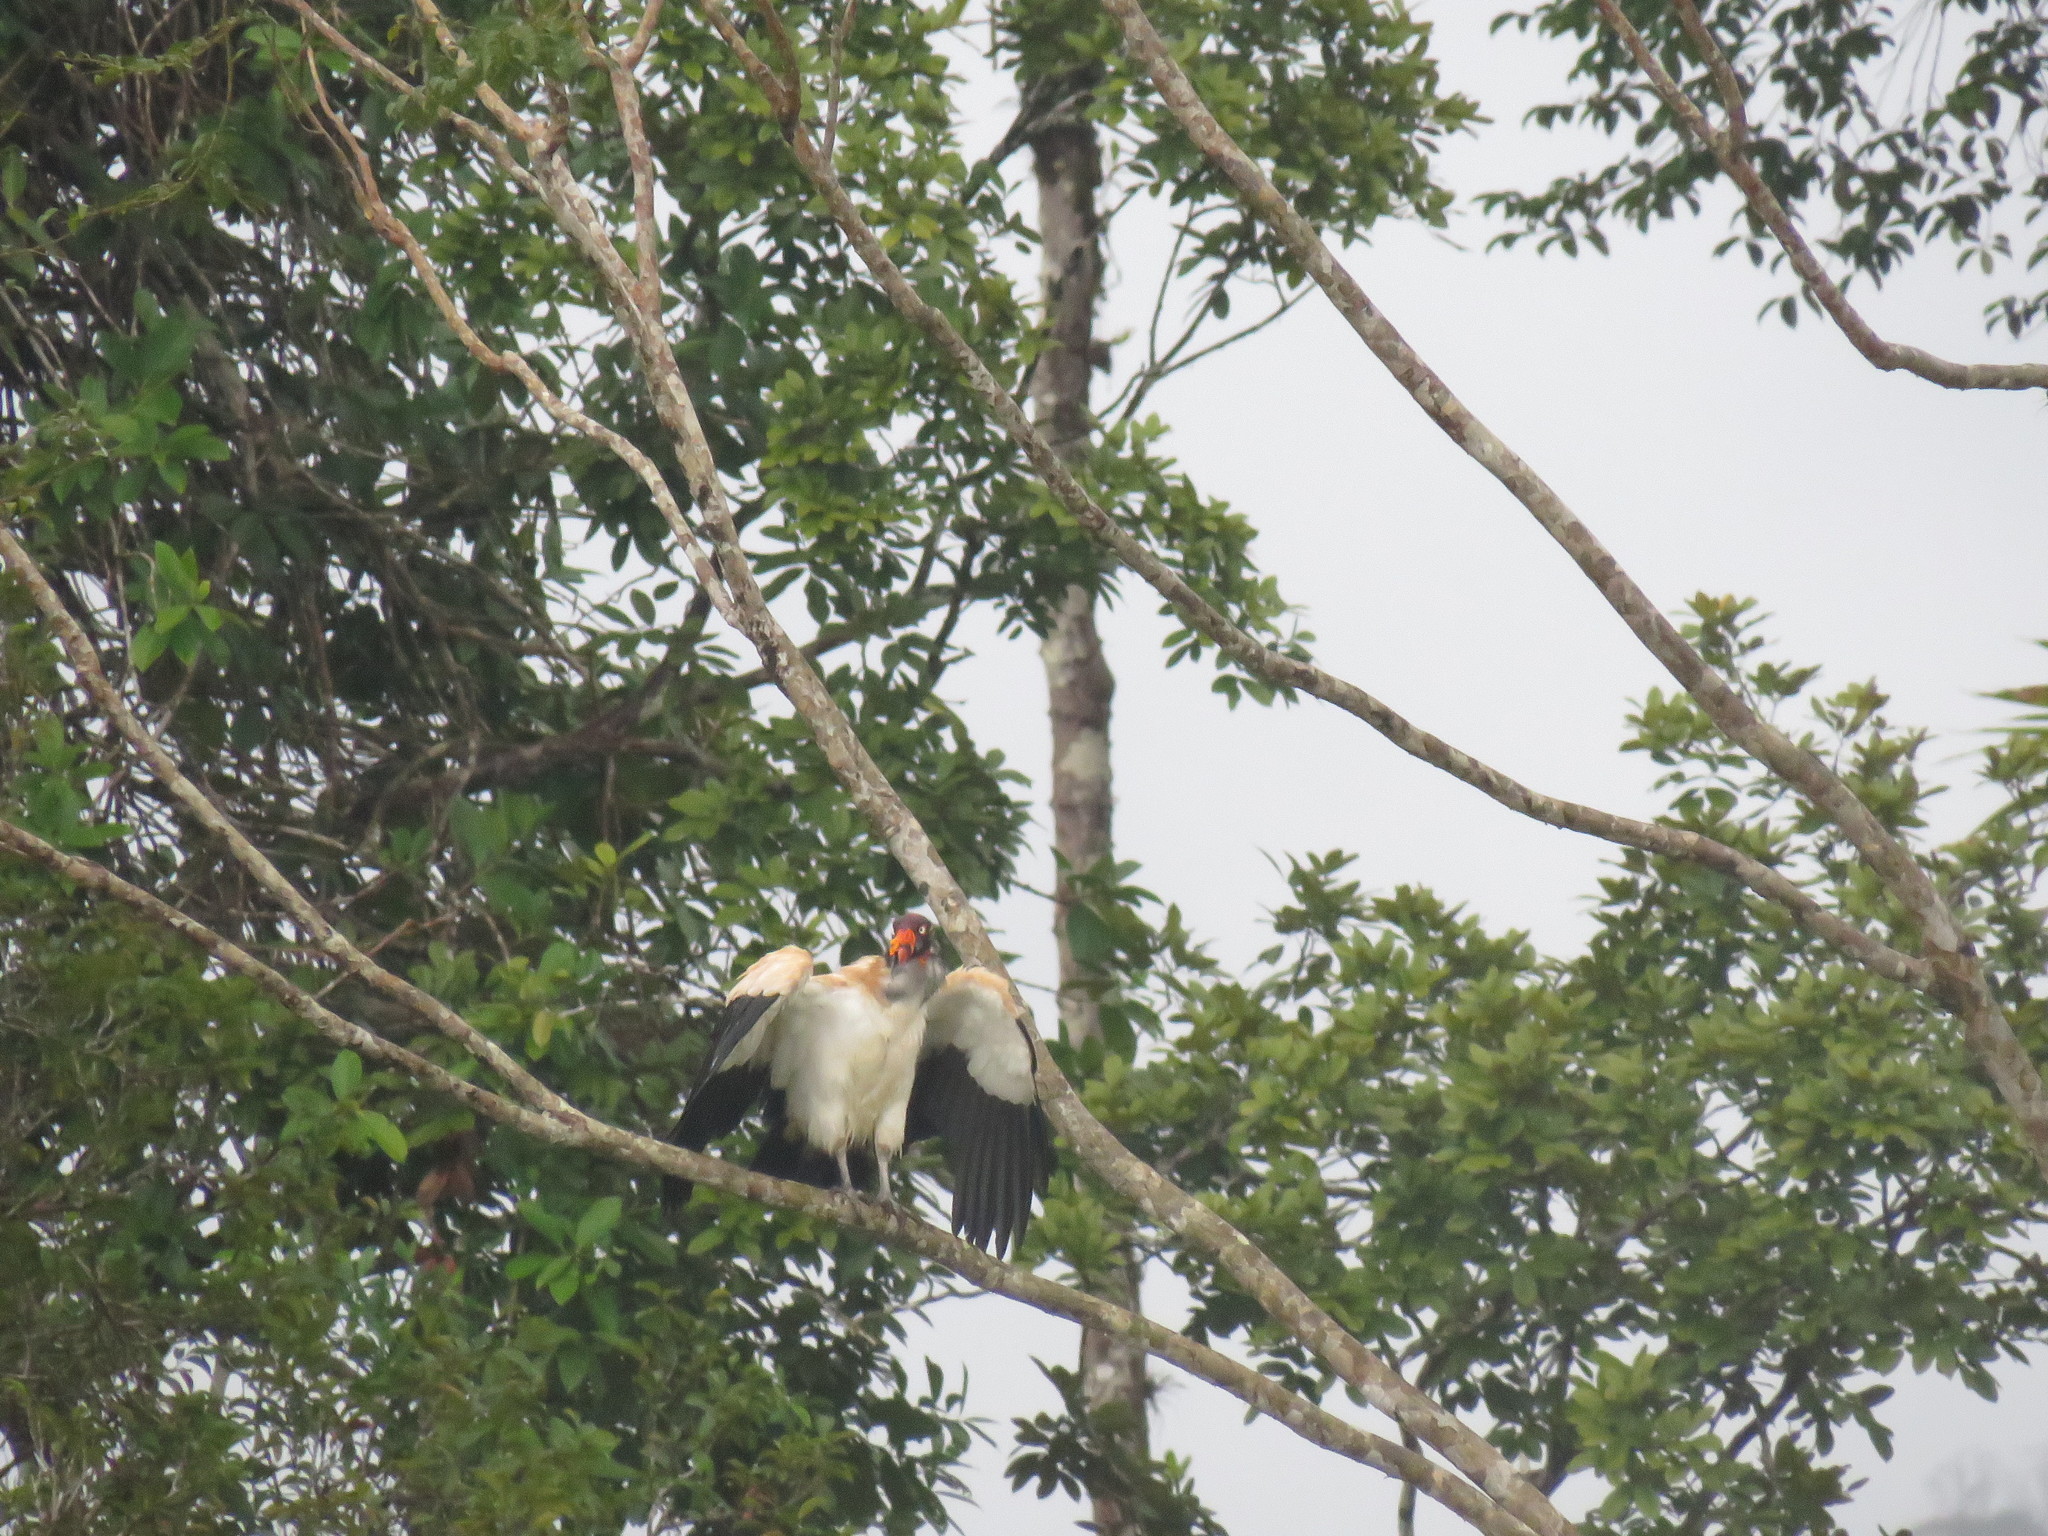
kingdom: Animalia
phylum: Chordata
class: Aves
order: Accipitriformes
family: Cathartidae
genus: Sarcoramphus
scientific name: Sarcoramphus papa
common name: King vulture
